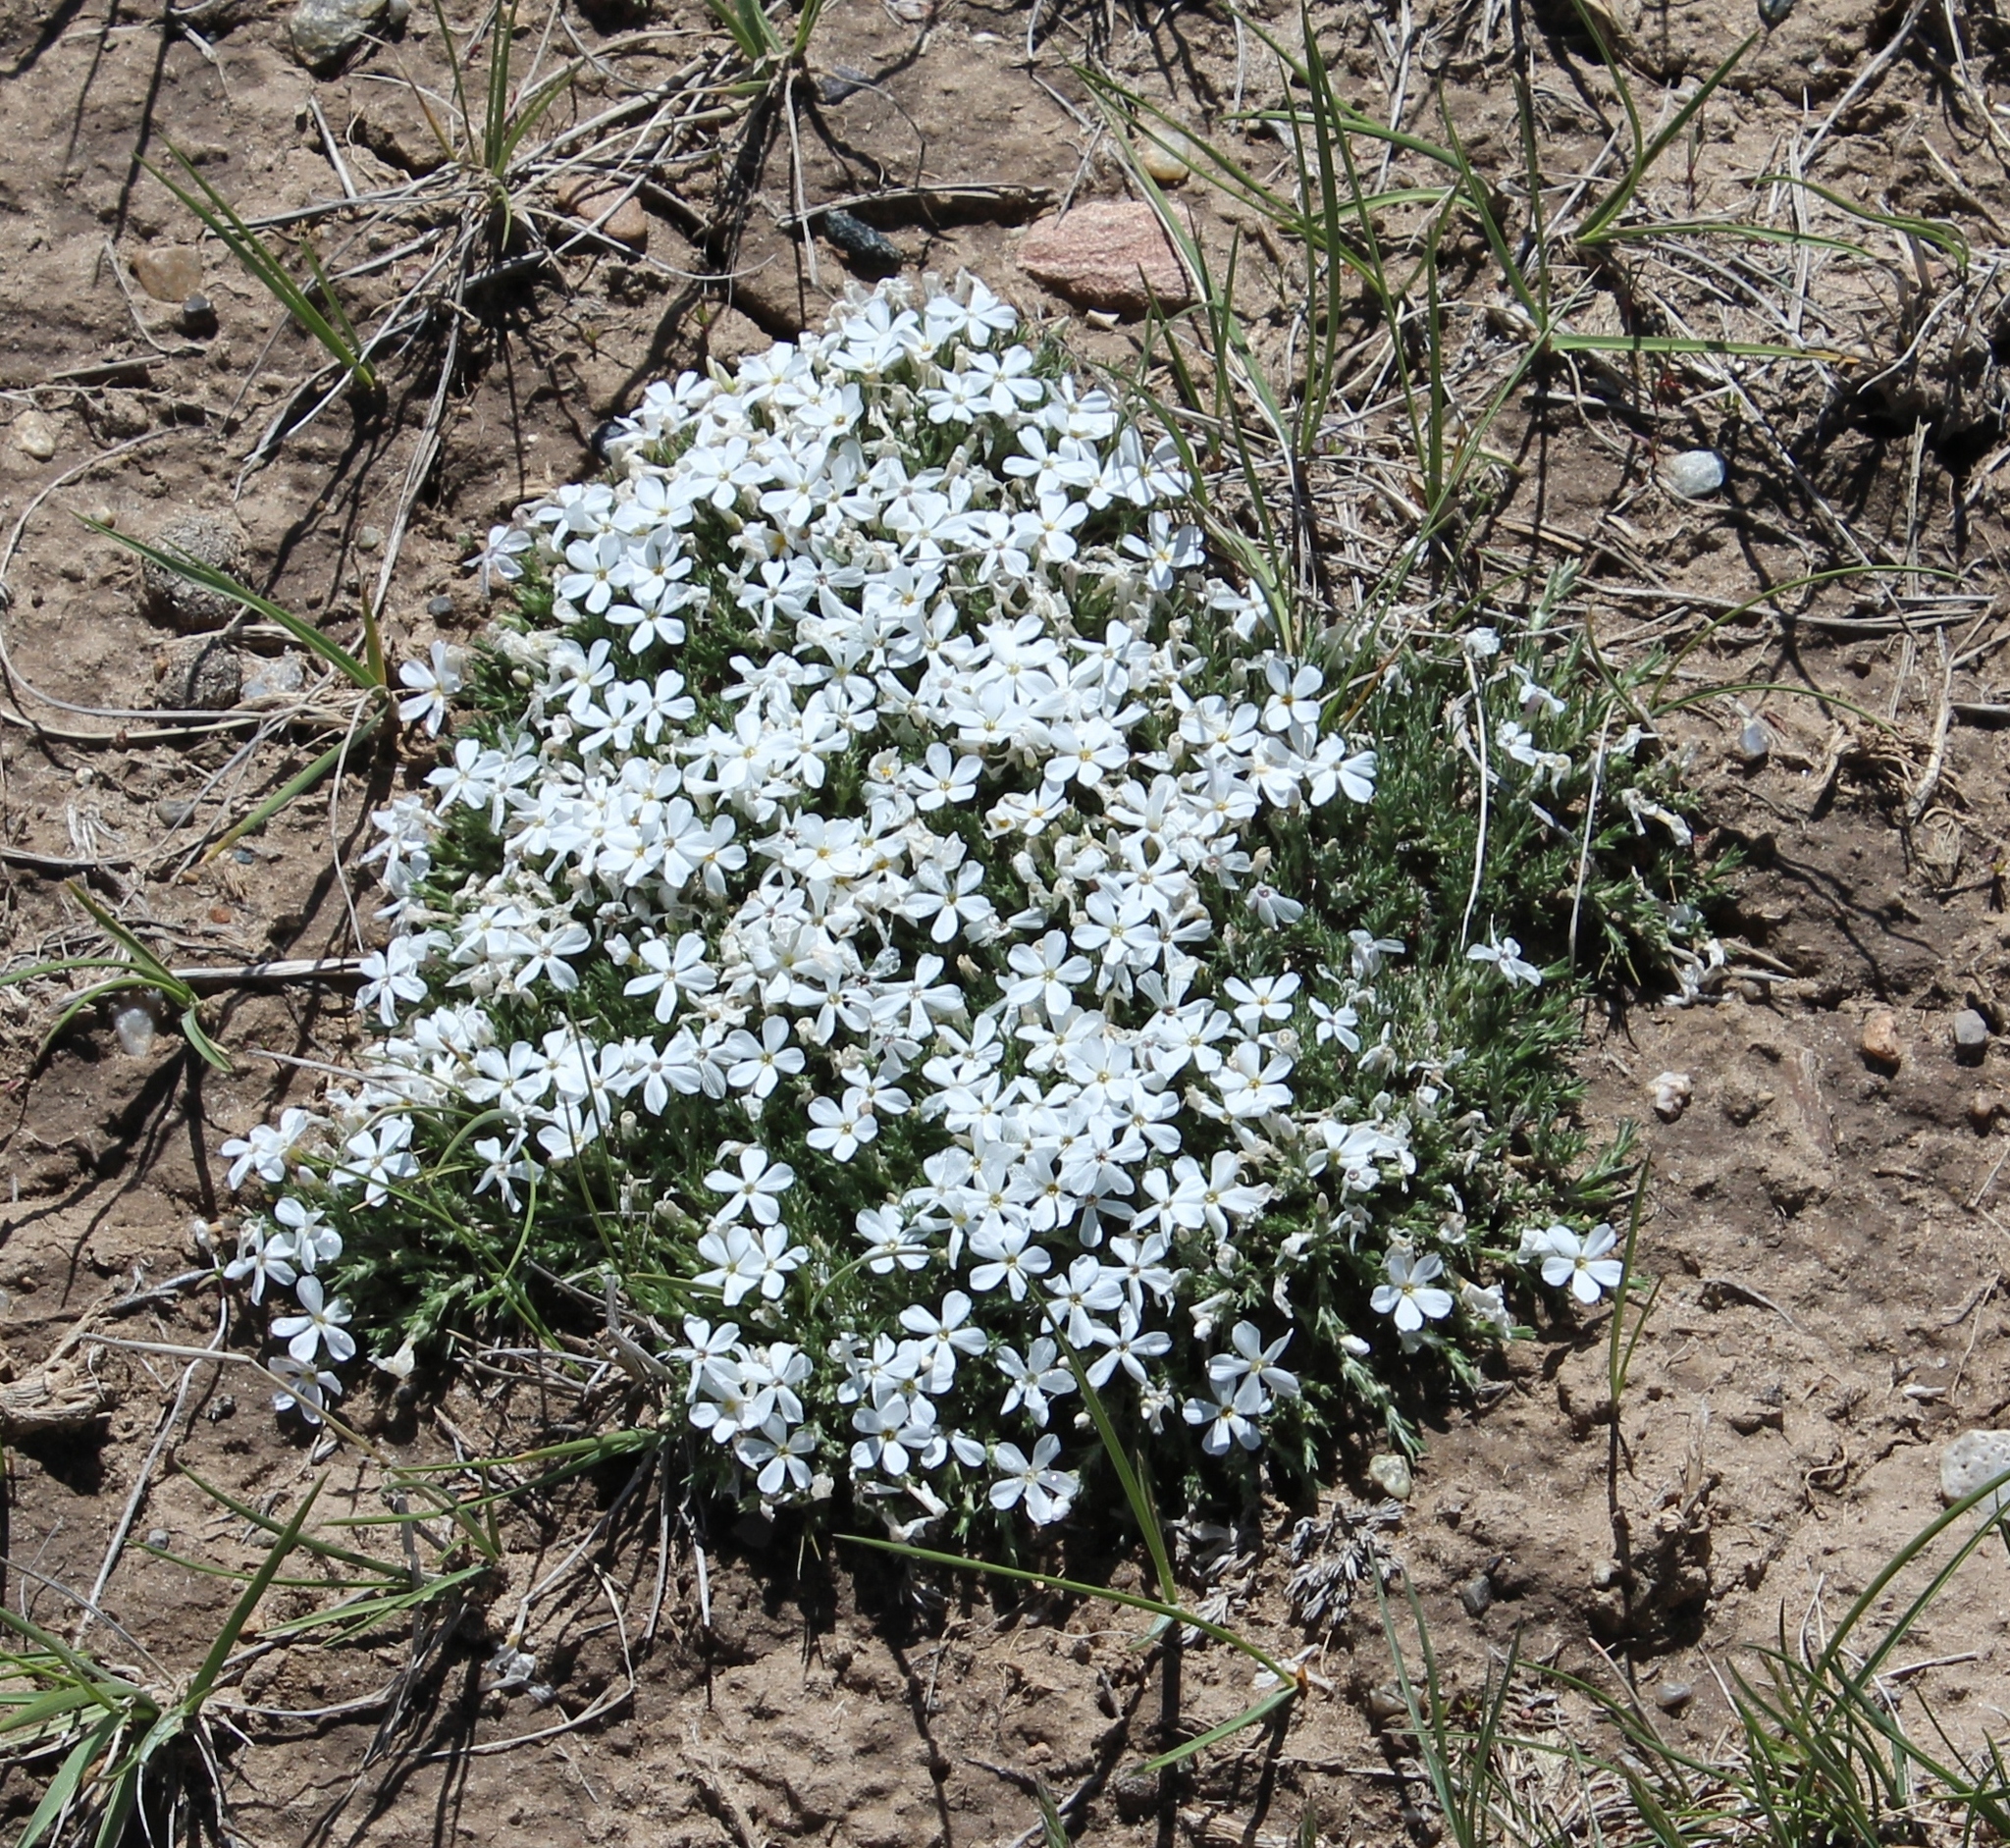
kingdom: Plantae
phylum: Tracheophyta
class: Magnoliopsida
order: Ericales
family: Polemoniaceae
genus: Phlox
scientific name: Phlox hoodii
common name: Moss phlox
